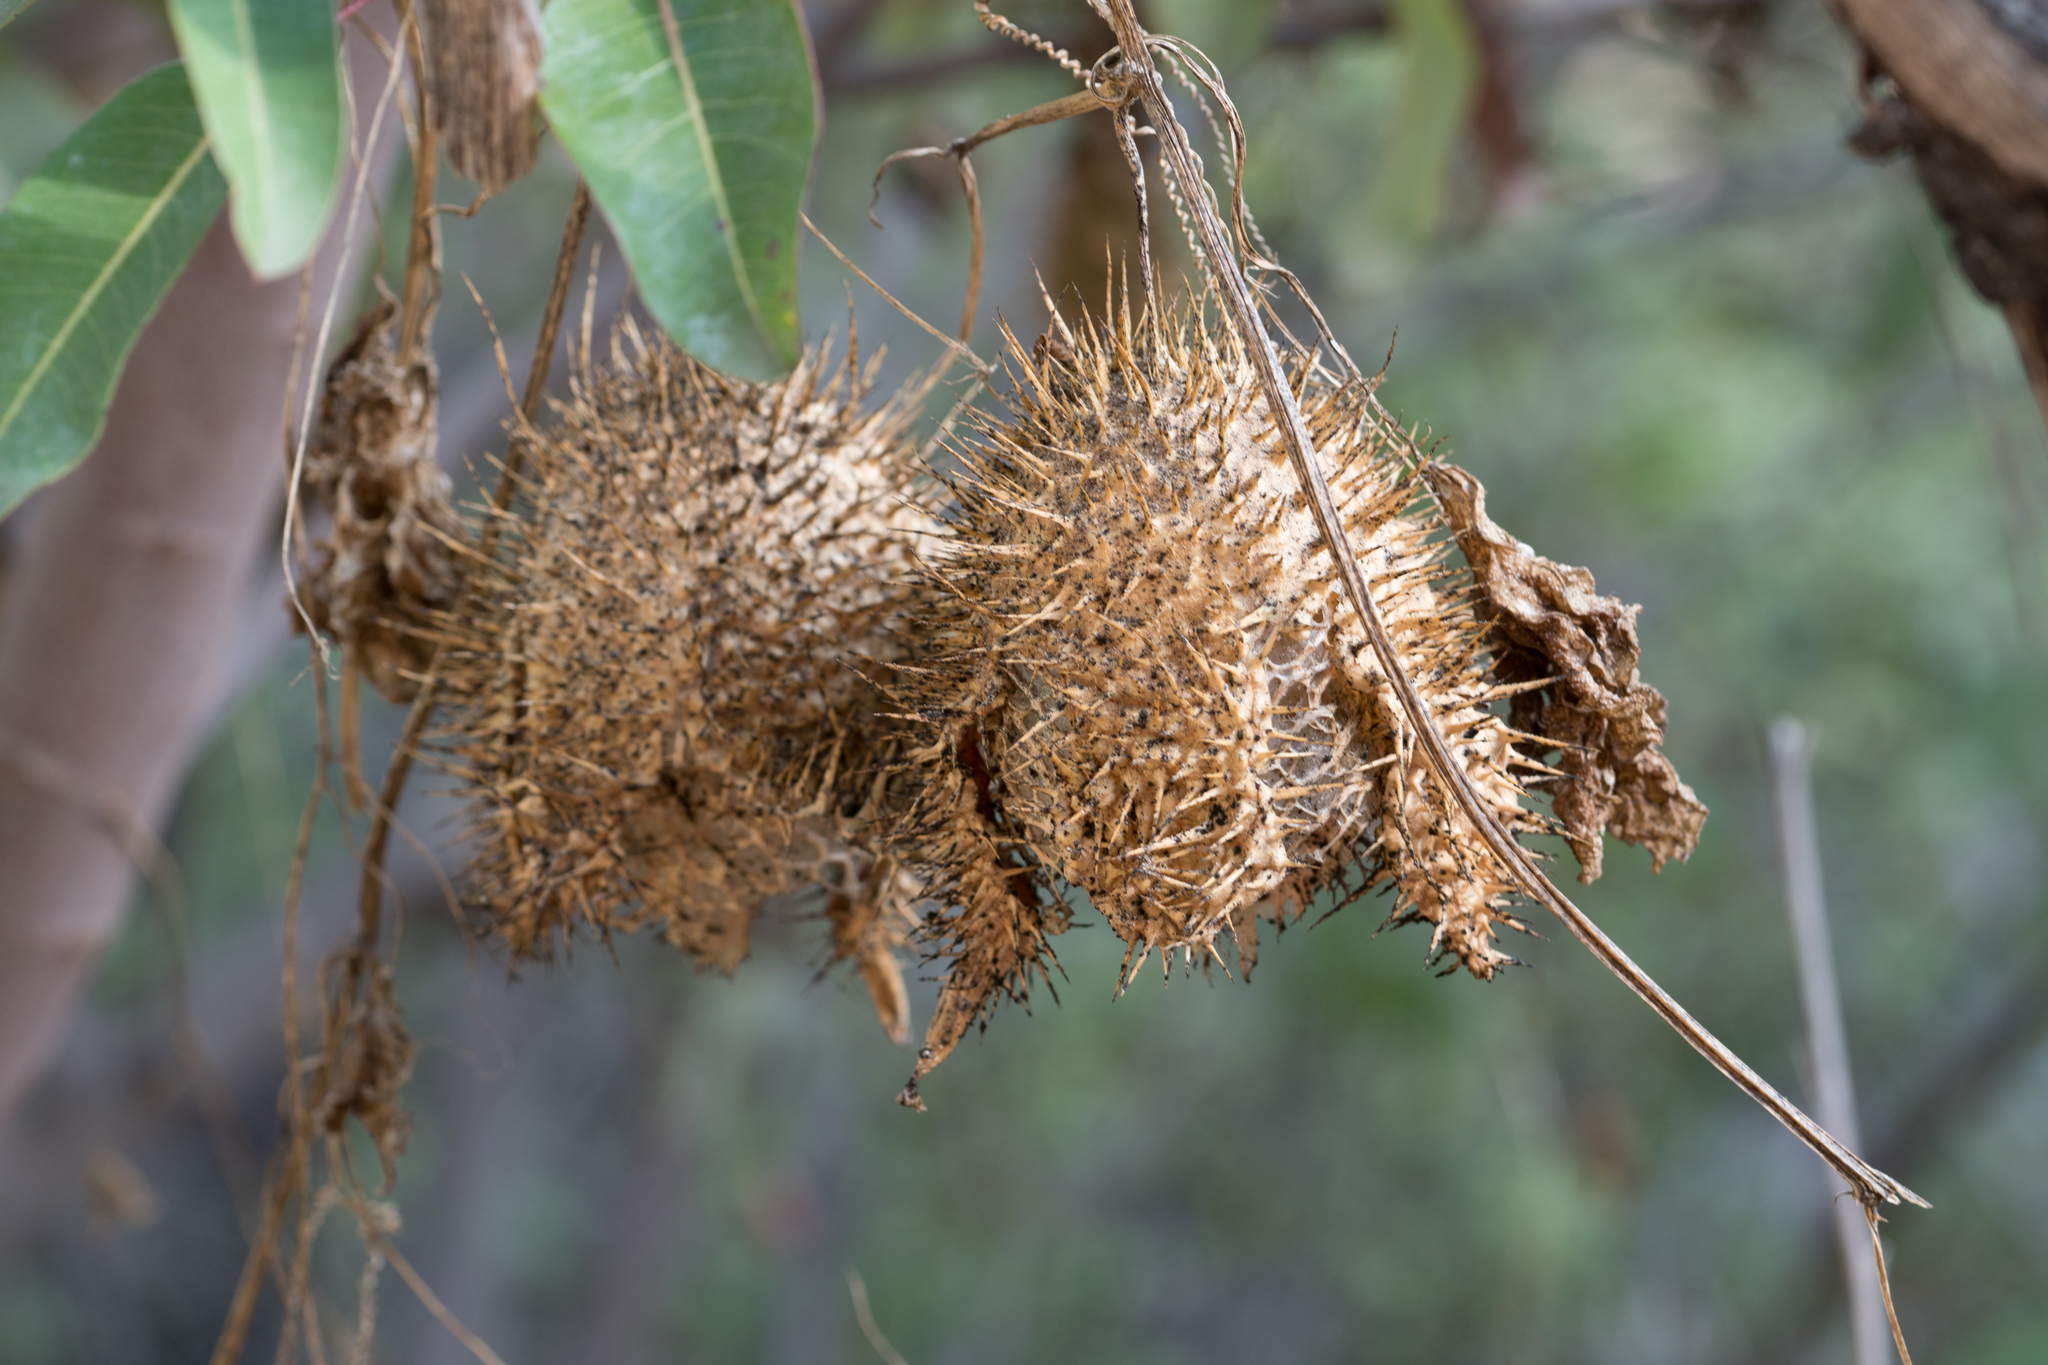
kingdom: Plantae
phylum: Tracheophyta
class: Magnoliopsida
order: Cucurbitales
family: Cucurbitaceae
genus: Marah
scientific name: Marah macrocarpa
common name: Cucamonga manroot
